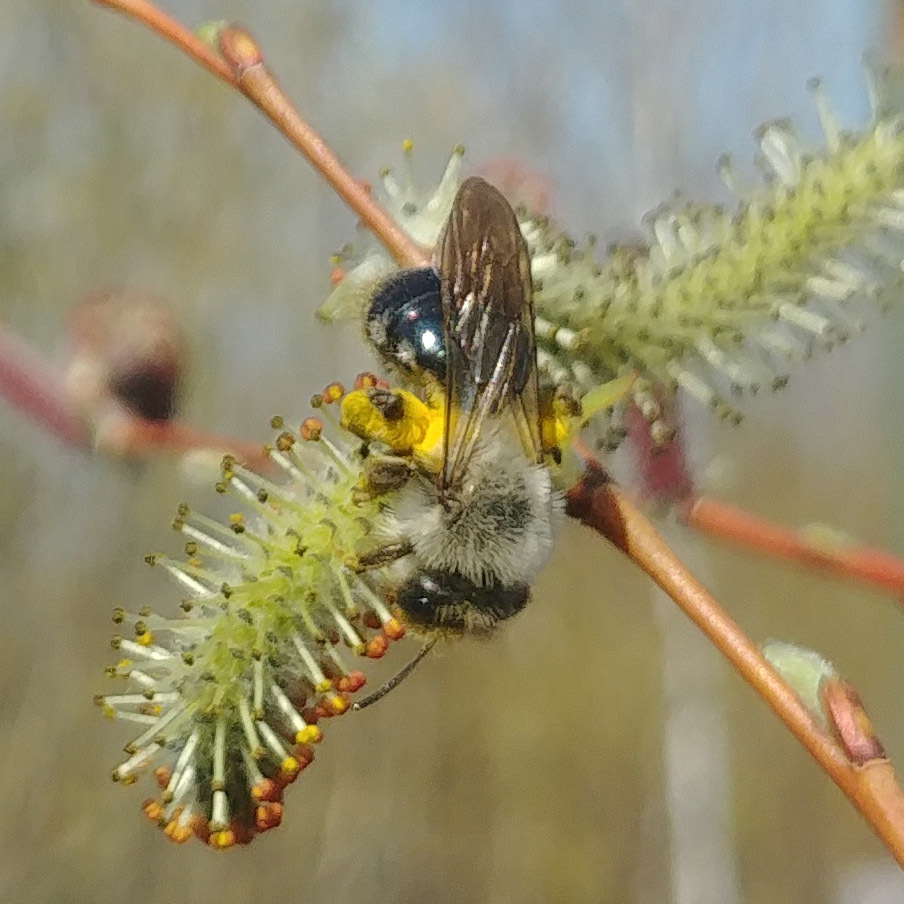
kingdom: Animalia
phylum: Arthropoda
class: Insecta
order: Hymenoptera
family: Andrenidae
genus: Andrena
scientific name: Andrena vaga
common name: Grey-backed mining bee
